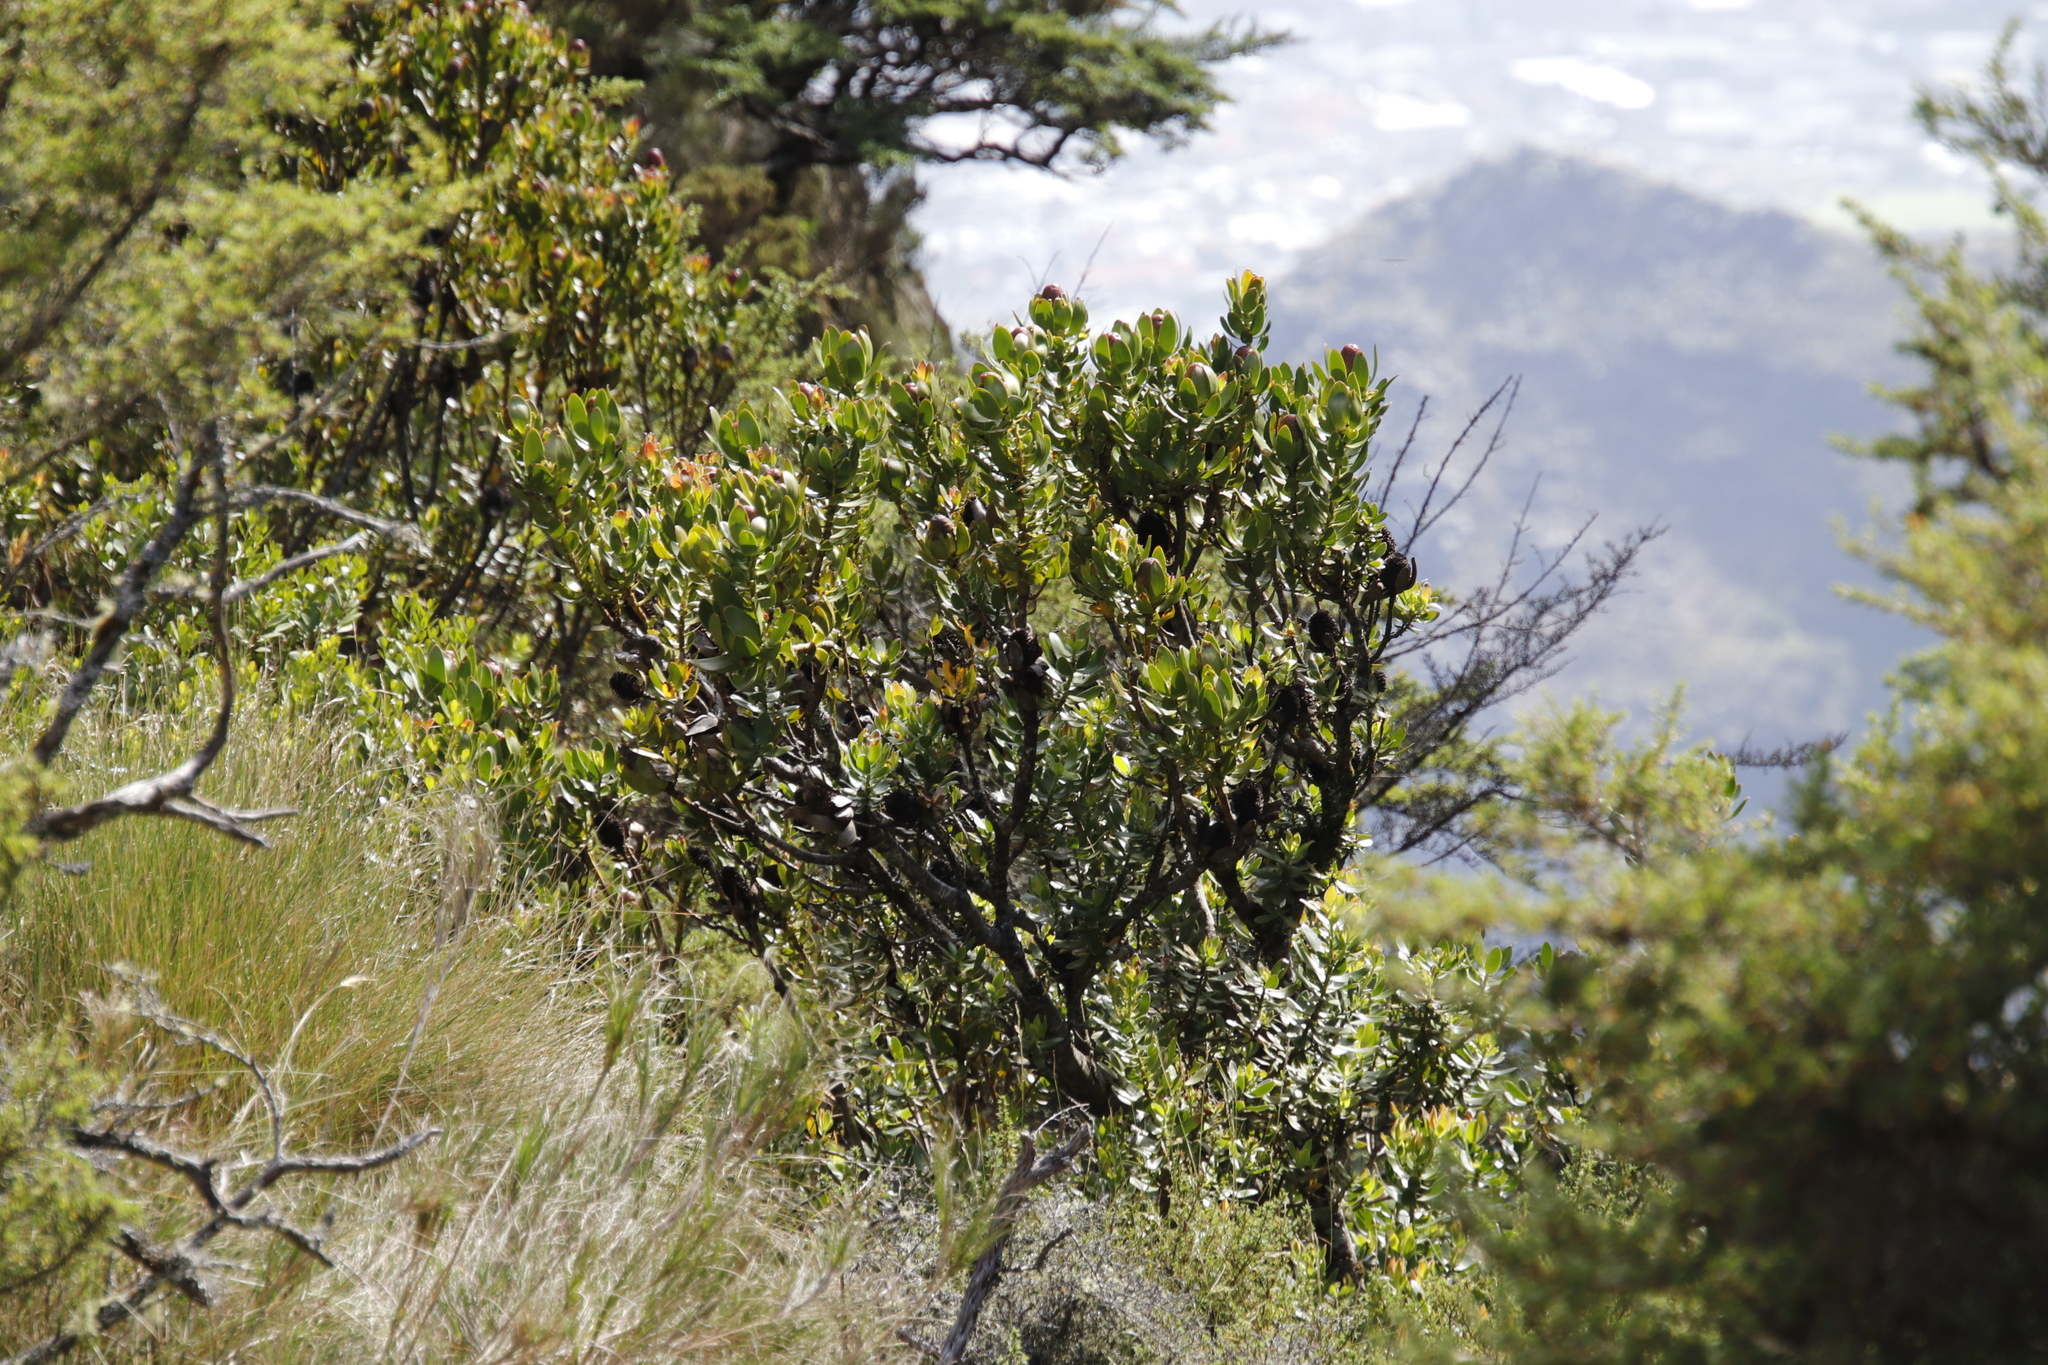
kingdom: Plantae
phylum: Tracheophyta
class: Magnoliopsida
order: Proteales
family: Proteaceae
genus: Leucadendron
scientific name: Leucadendron strobilinum
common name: Mountain rose
